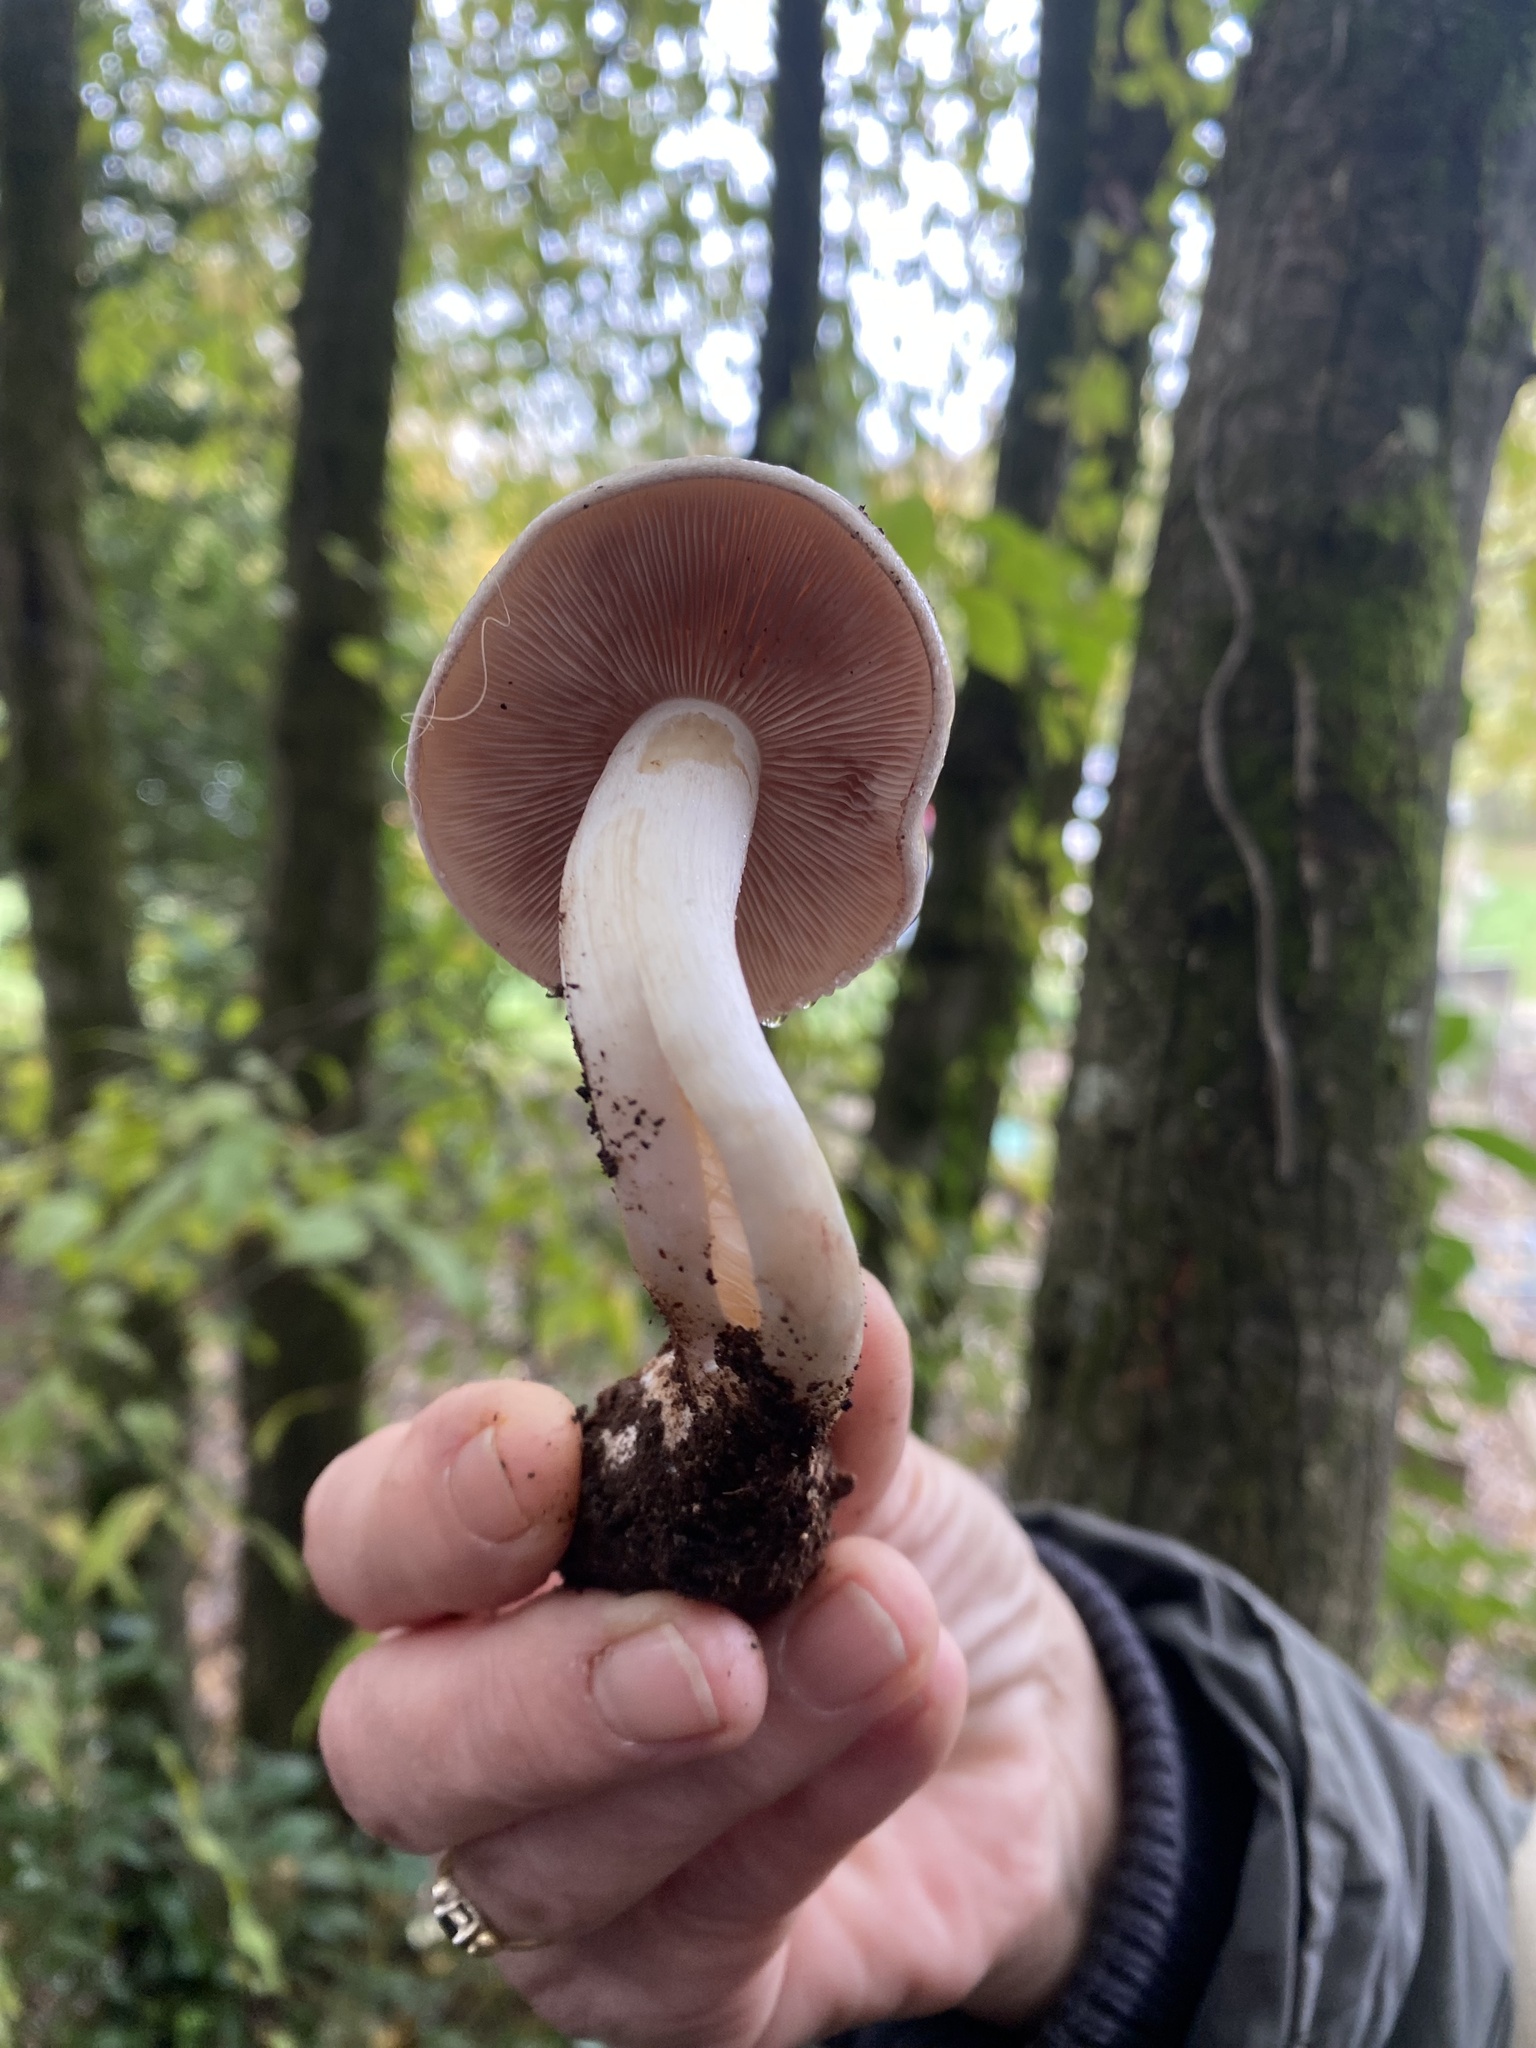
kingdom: Fungi
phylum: Basidiomycota
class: Agaricomycetes
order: Agaricales
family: Hymenogastraceae
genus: Hebeloma
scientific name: Hebeloma sinapizans
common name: Bitter poisonpie
